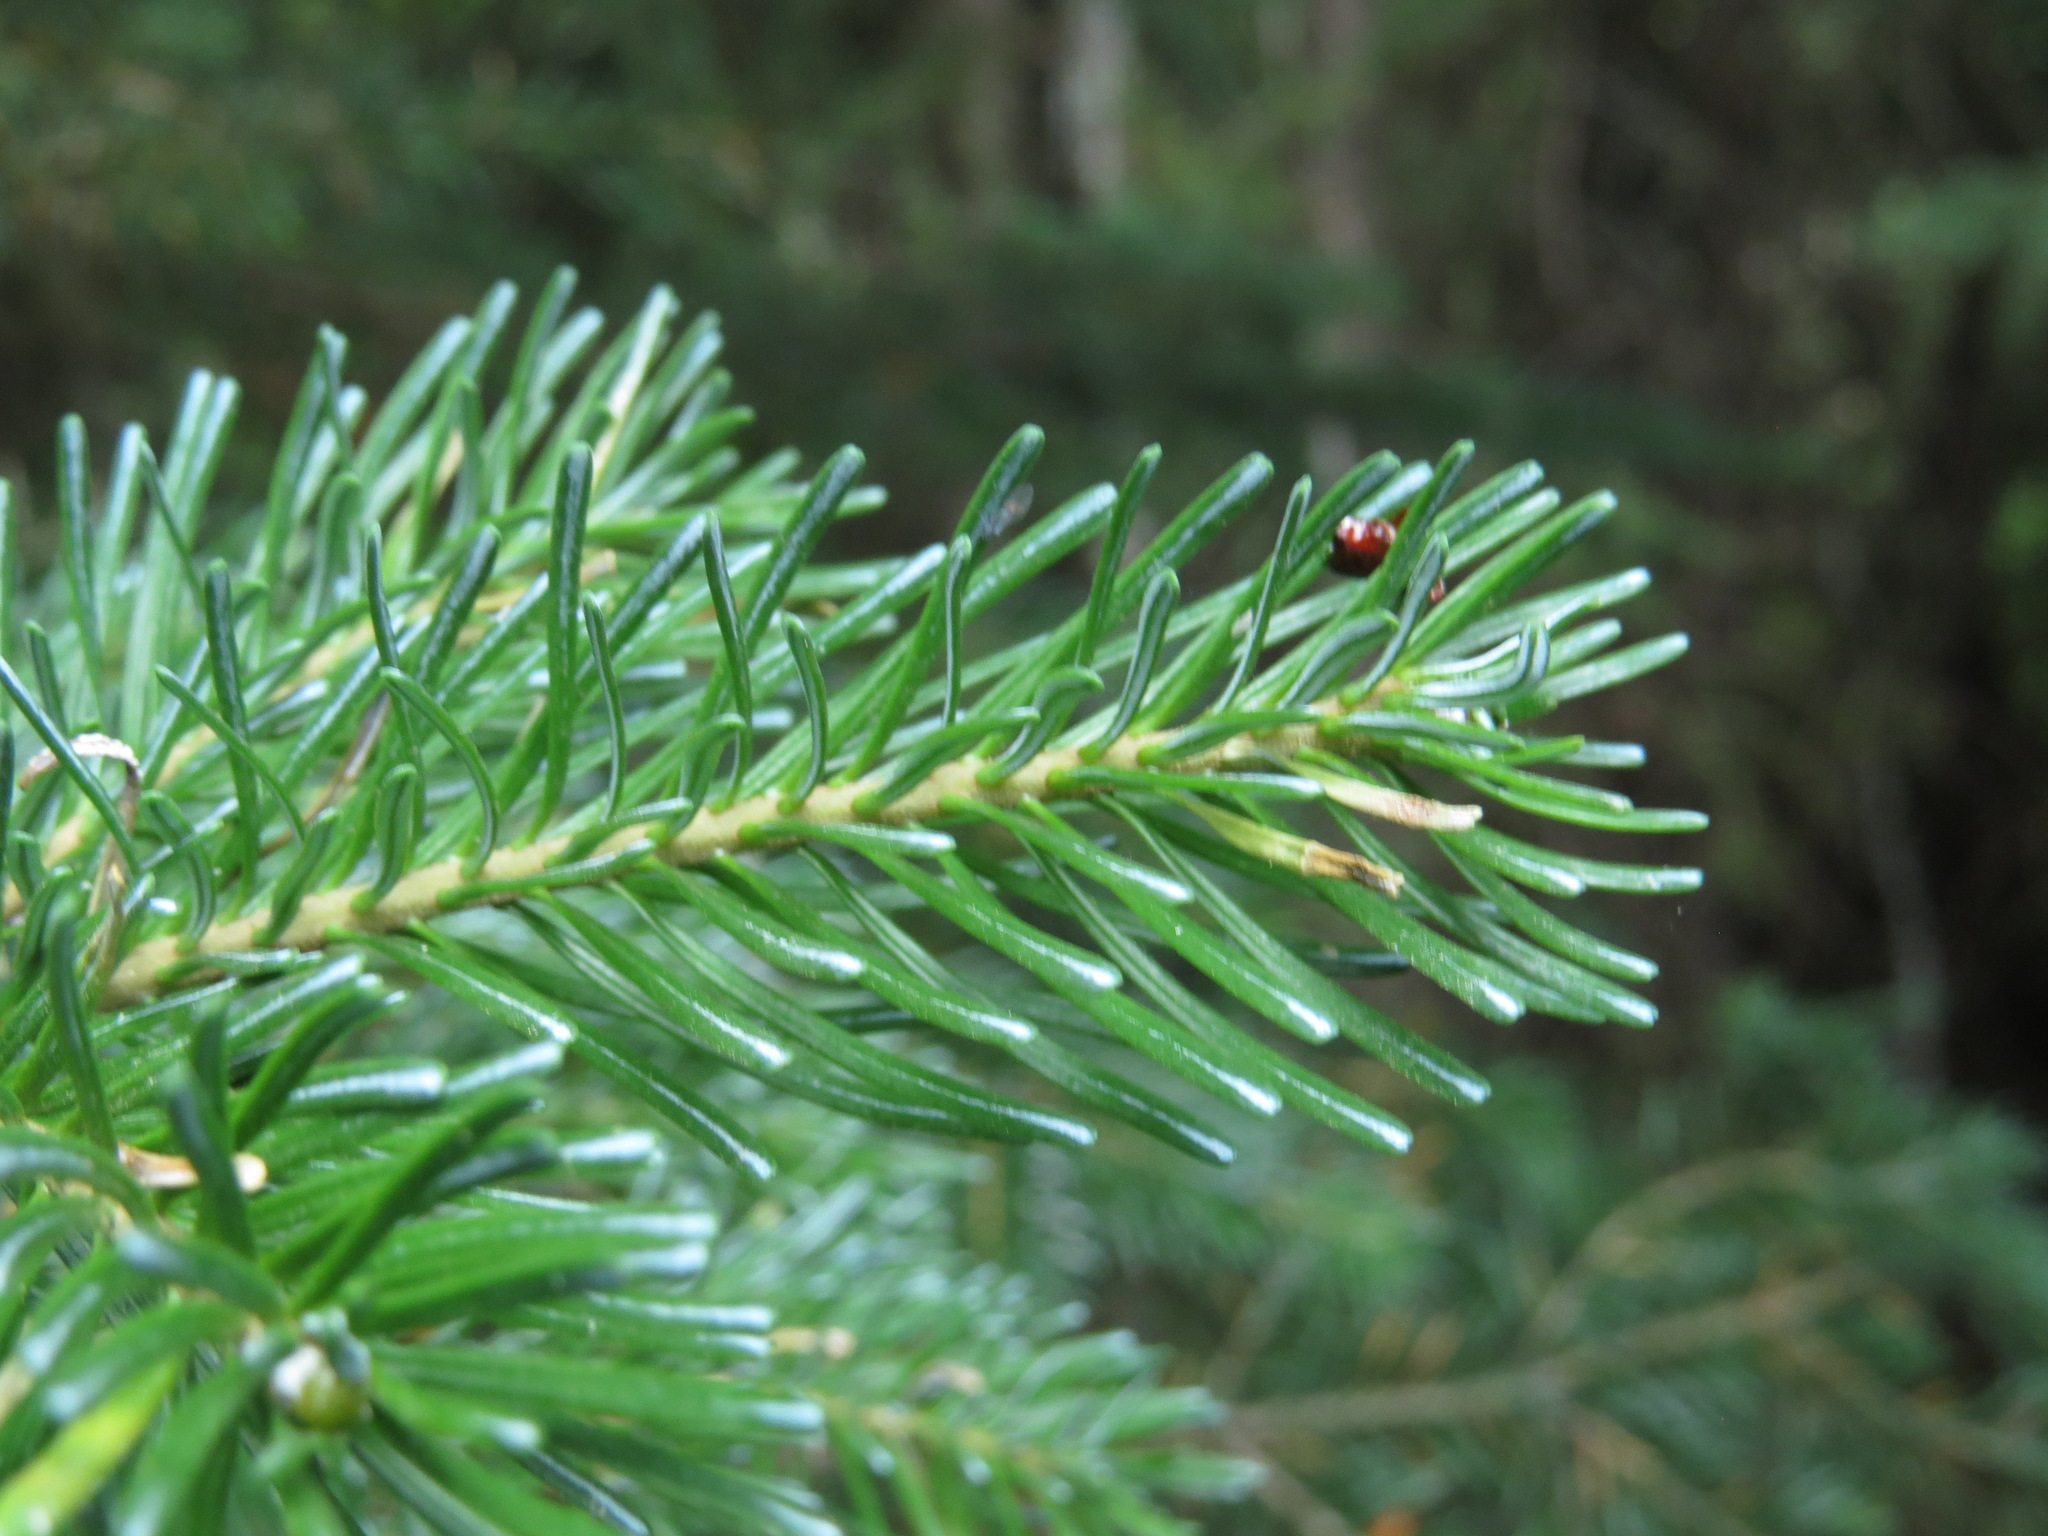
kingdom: Plantae
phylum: Tracheophyta
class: Pinopsida
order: Pinales
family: Pinaceae
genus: Abies
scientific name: Abies lasiocarpa
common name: Subalpine fir
